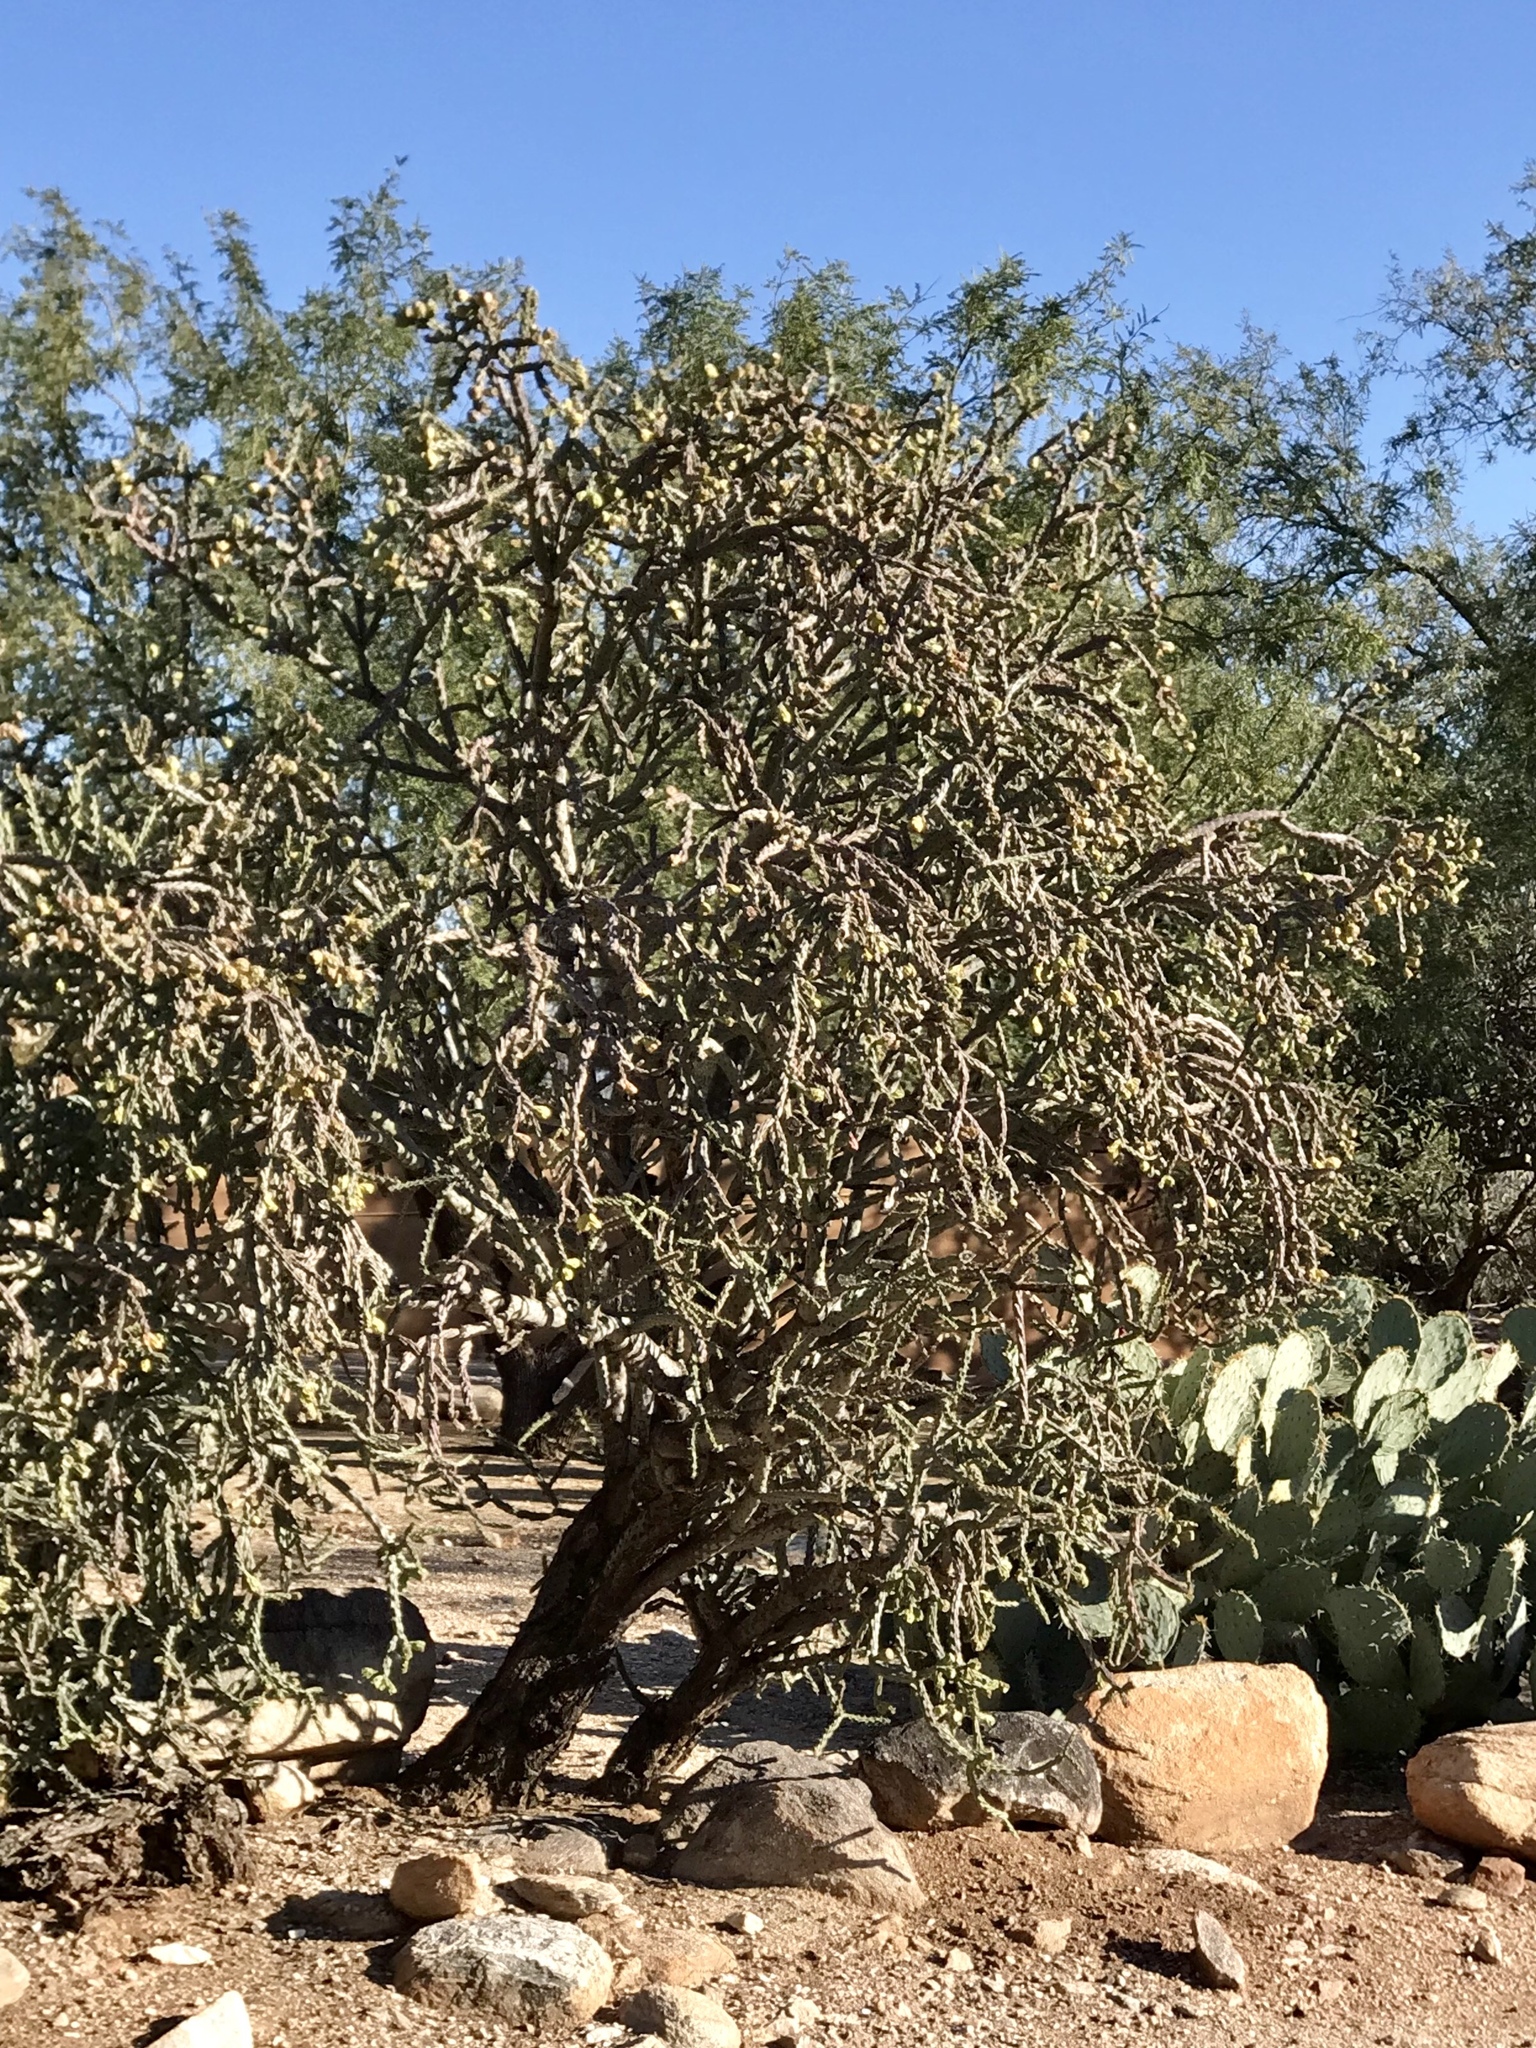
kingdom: Plantae
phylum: Tracheophyta
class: Magnoliopsida
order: Caryophyllales
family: Cactaceae
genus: Cylindropuntia
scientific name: Cylindropuntia thurberi
